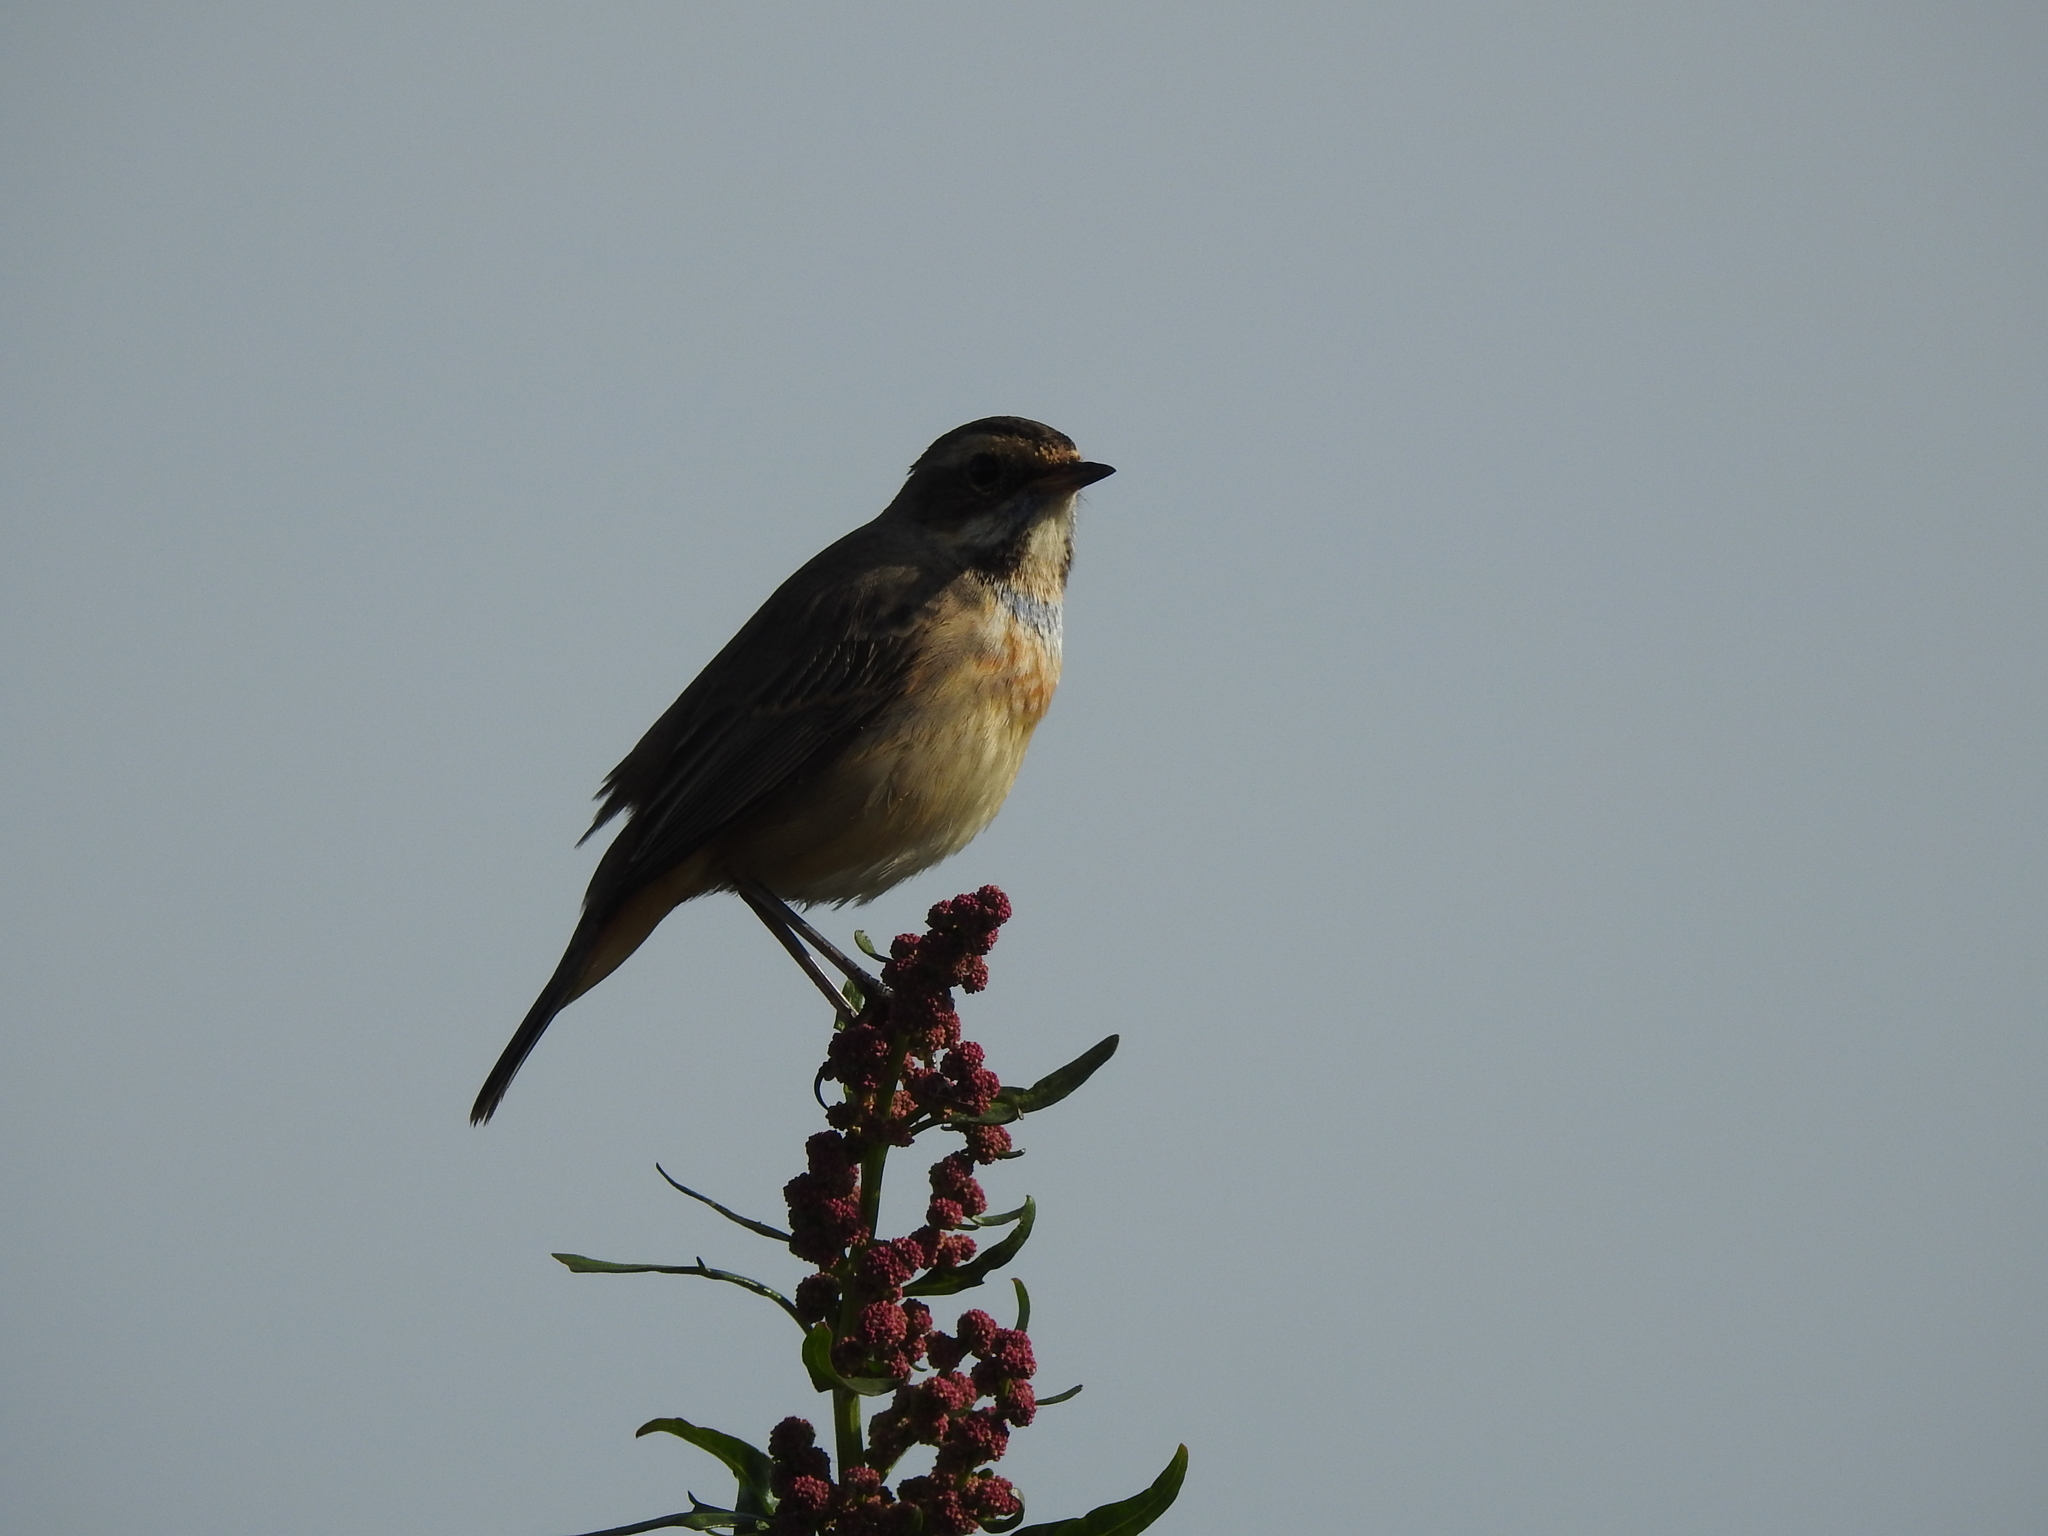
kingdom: Animalia
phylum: Chordata
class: Aves
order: Passeriformes
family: Muscicapidae
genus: Luscinia
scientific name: Luscinia svecica
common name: Bluethroat
